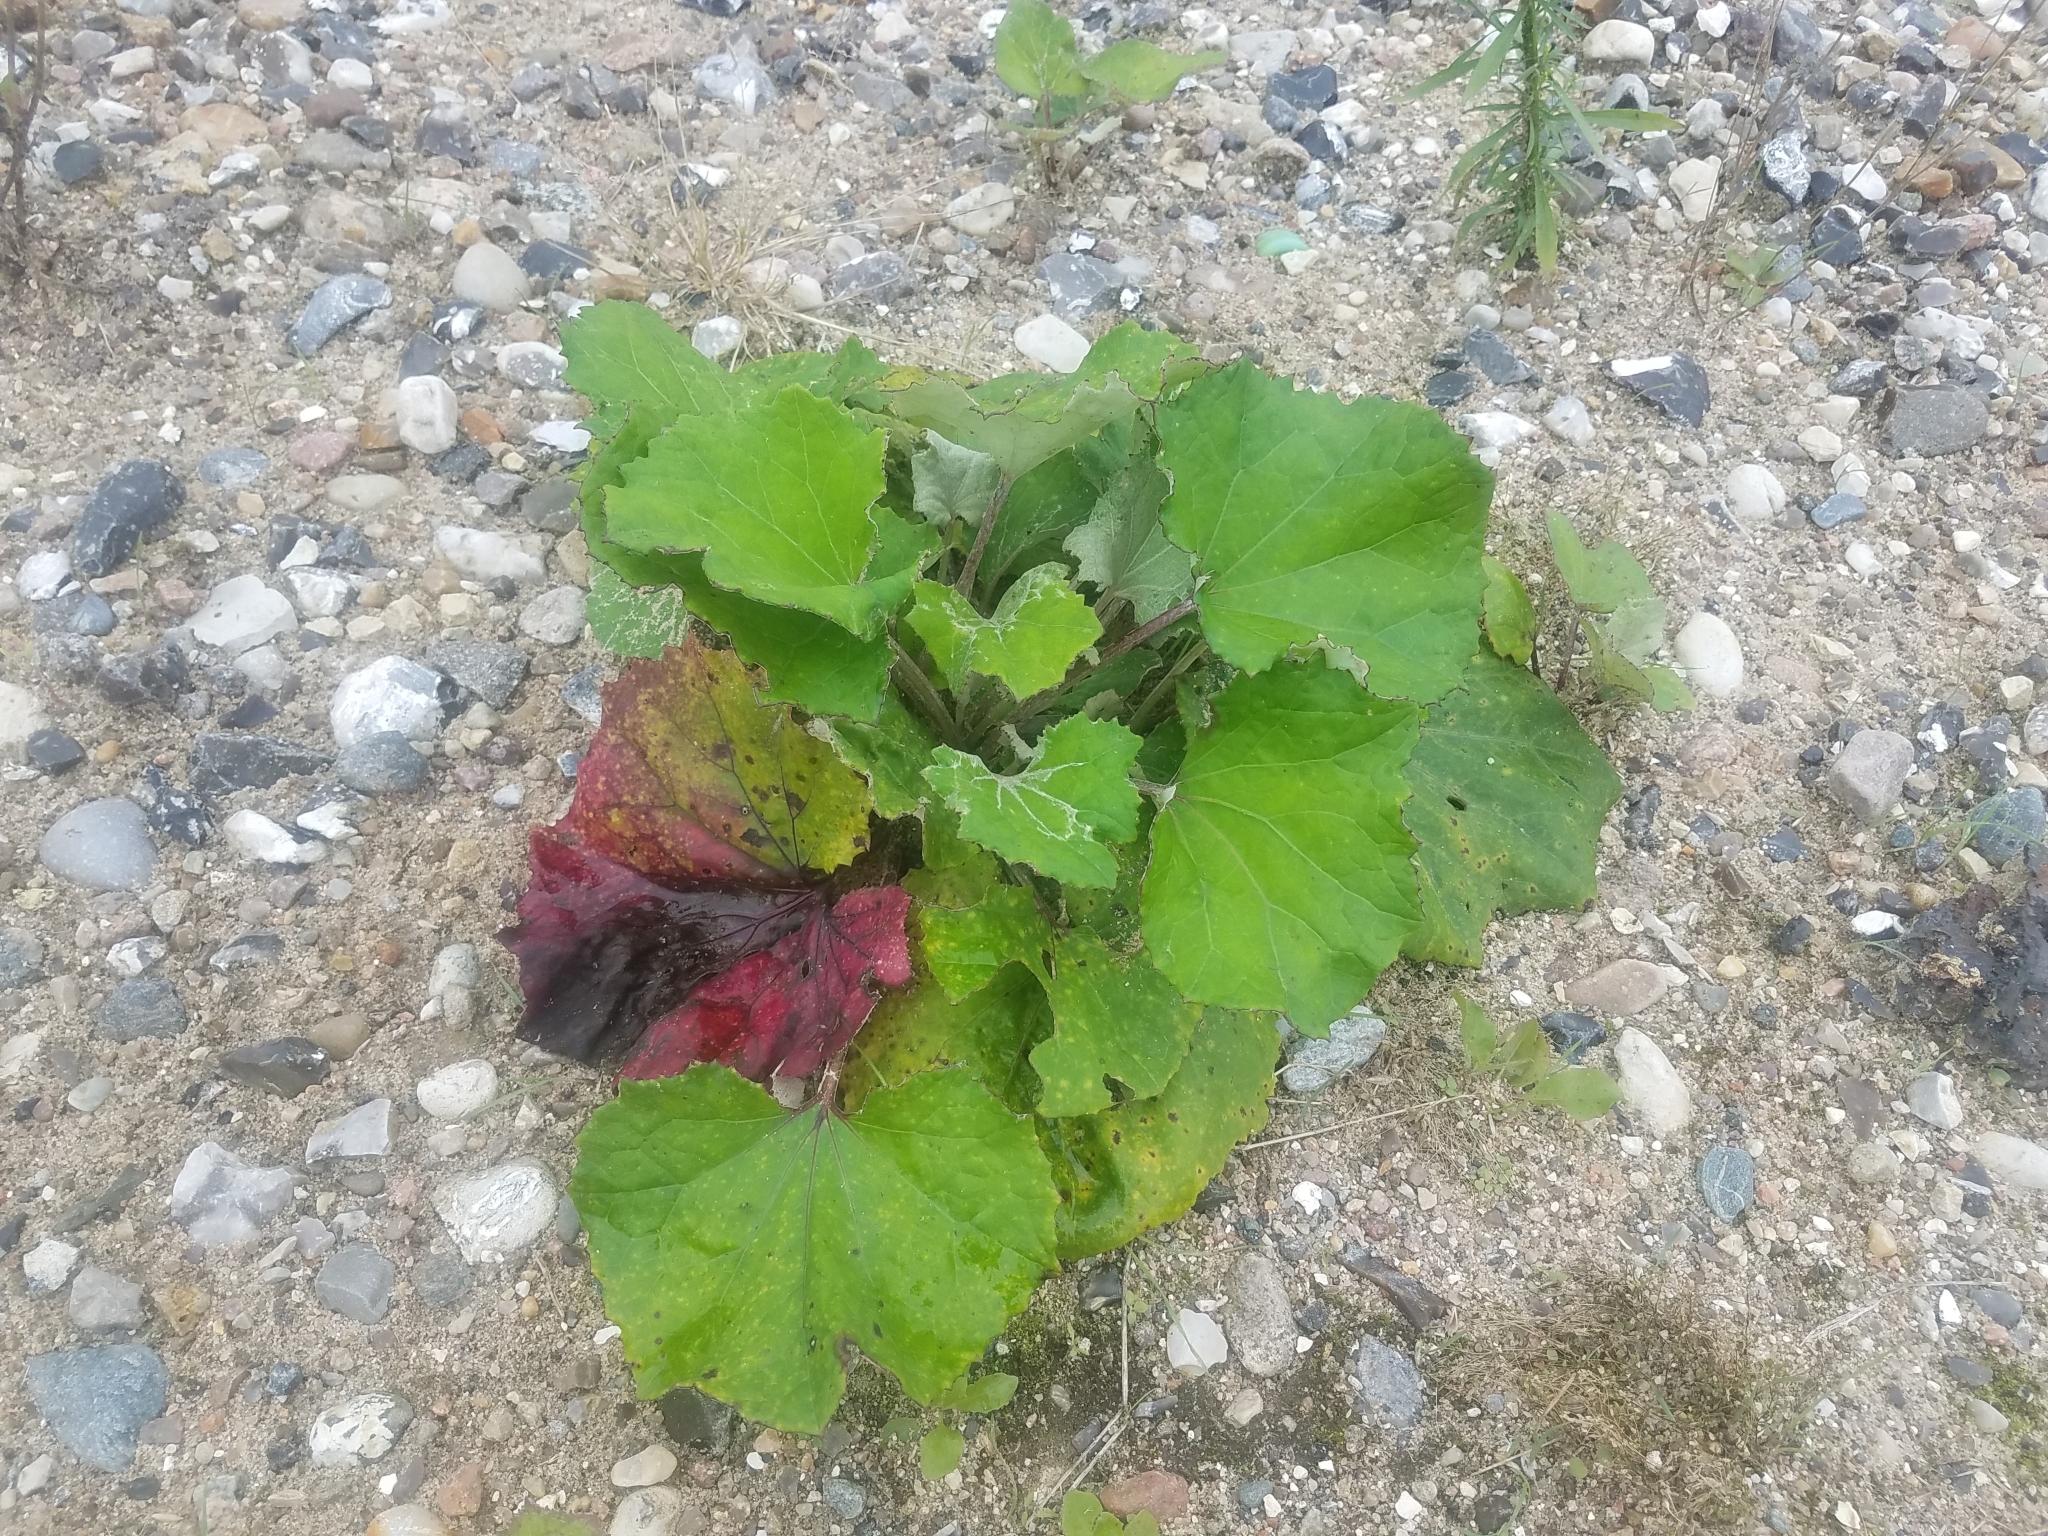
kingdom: Plantae
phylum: Tracheophyta
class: Magnoliopsida
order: Asterales
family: Asteraceae
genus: Tussilago
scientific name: Tussilago farfara
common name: Coltsfoot
